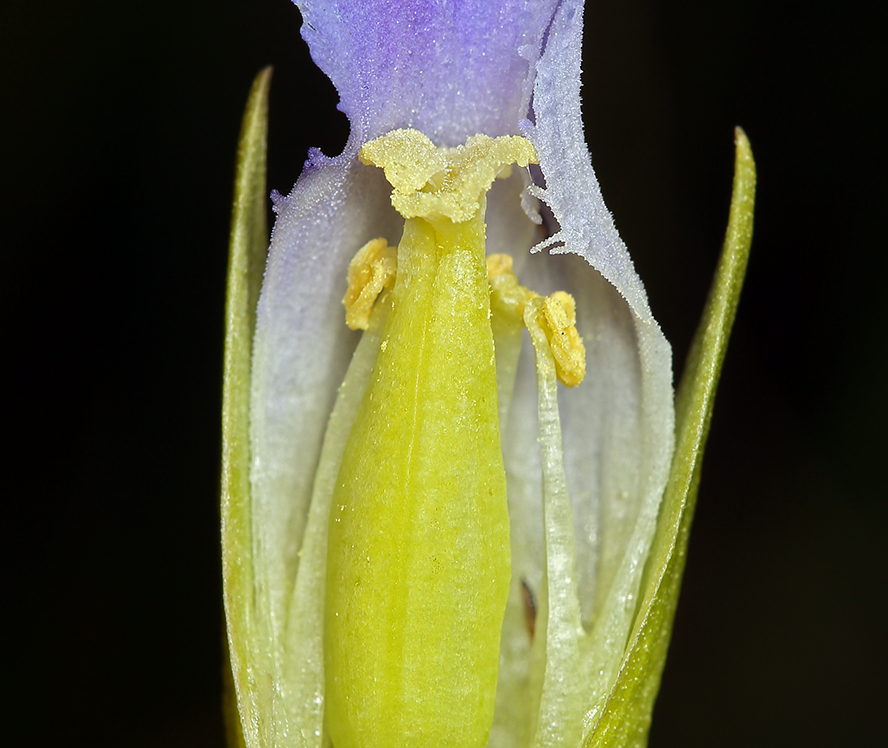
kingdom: Plantae
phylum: Tracheophyta
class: Magnoliopsida
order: Gentianales
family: Gentianaceae
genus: Gentianopsis
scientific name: Gentianopsis simplex
